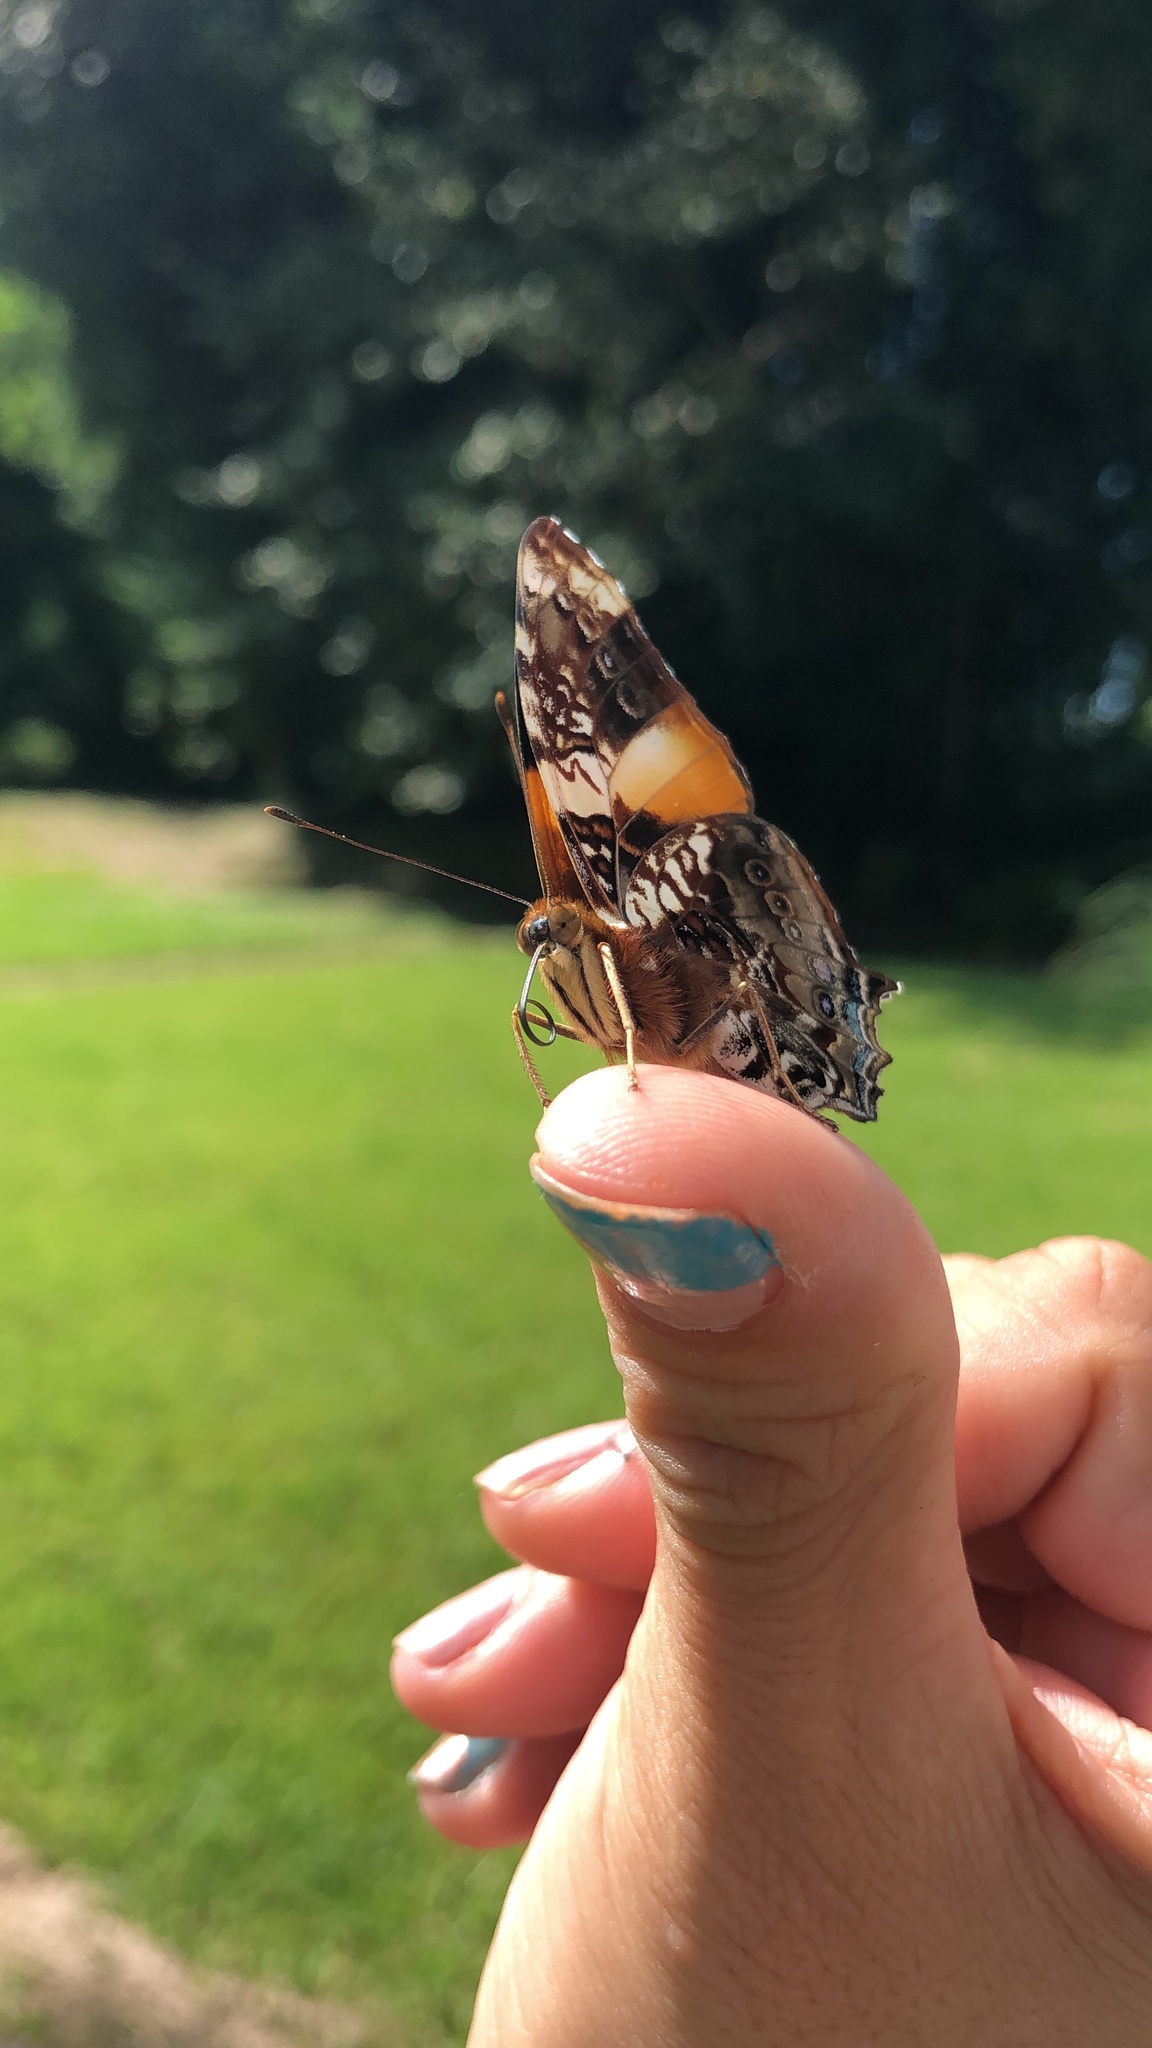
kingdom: Animalia
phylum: Arthropoda
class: Insecta
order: Lepidoptera
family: Nymphalidae
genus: Hypanartia
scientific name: Hypanartia godmanii
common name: Godman's mapwing
